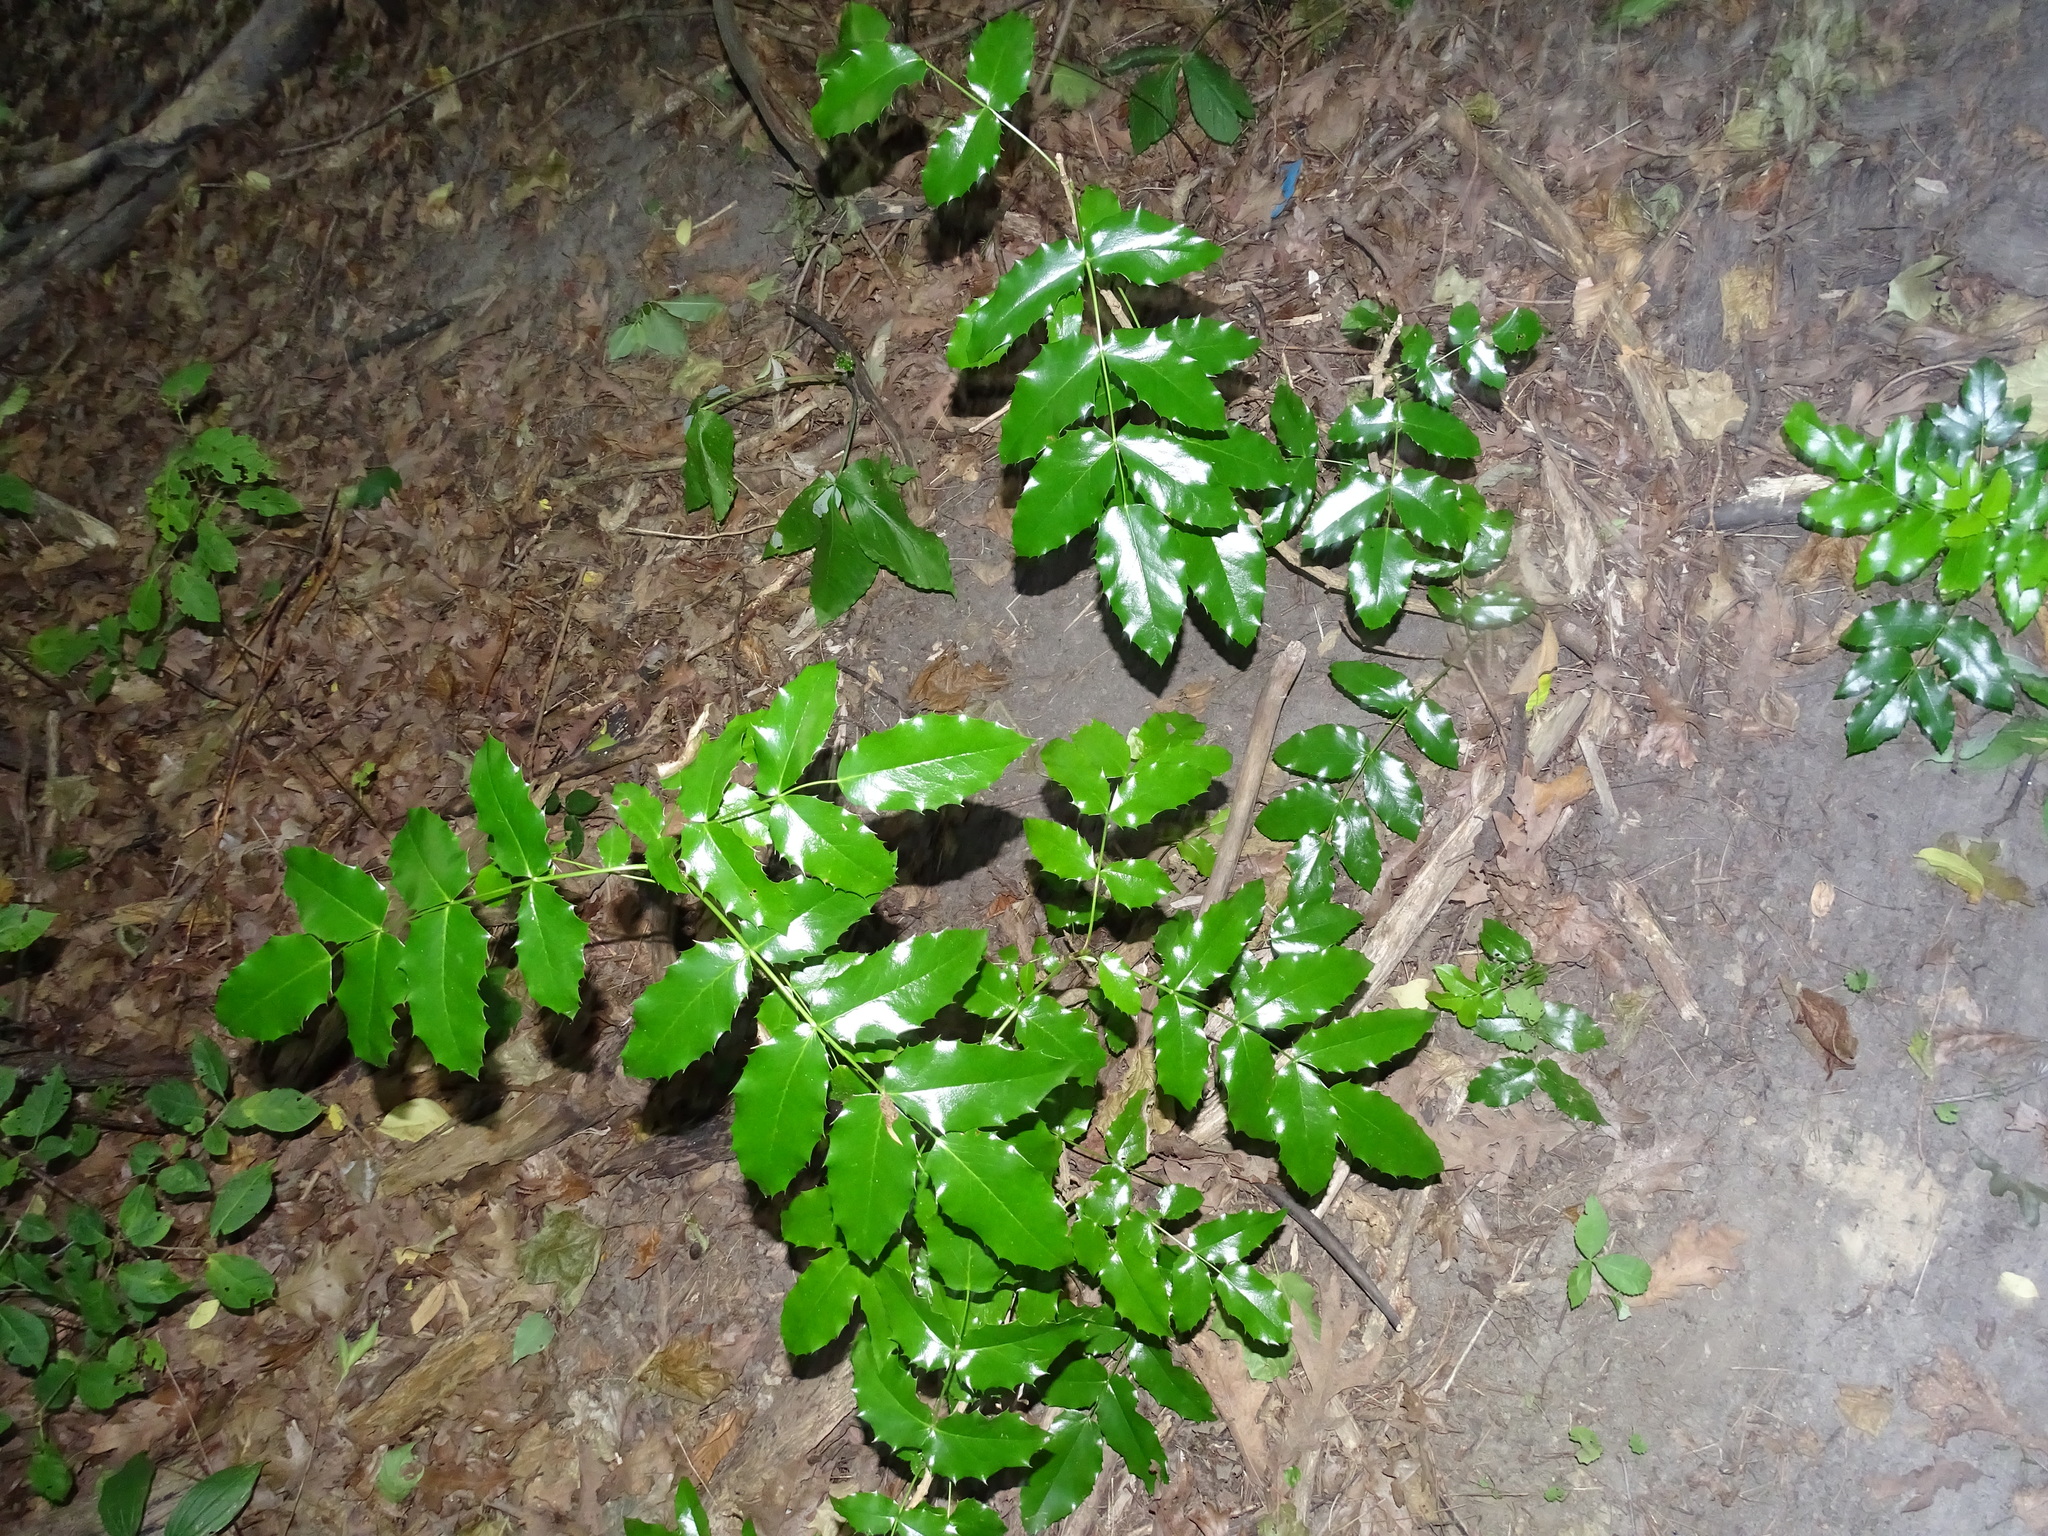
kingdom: Plantae
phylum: Tracheophyta
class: Magnoliopsida
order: Ranunculales
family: Berberidaceae
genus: Mahonia
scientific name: Mahonia aquifolium
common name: Oregon-grape
